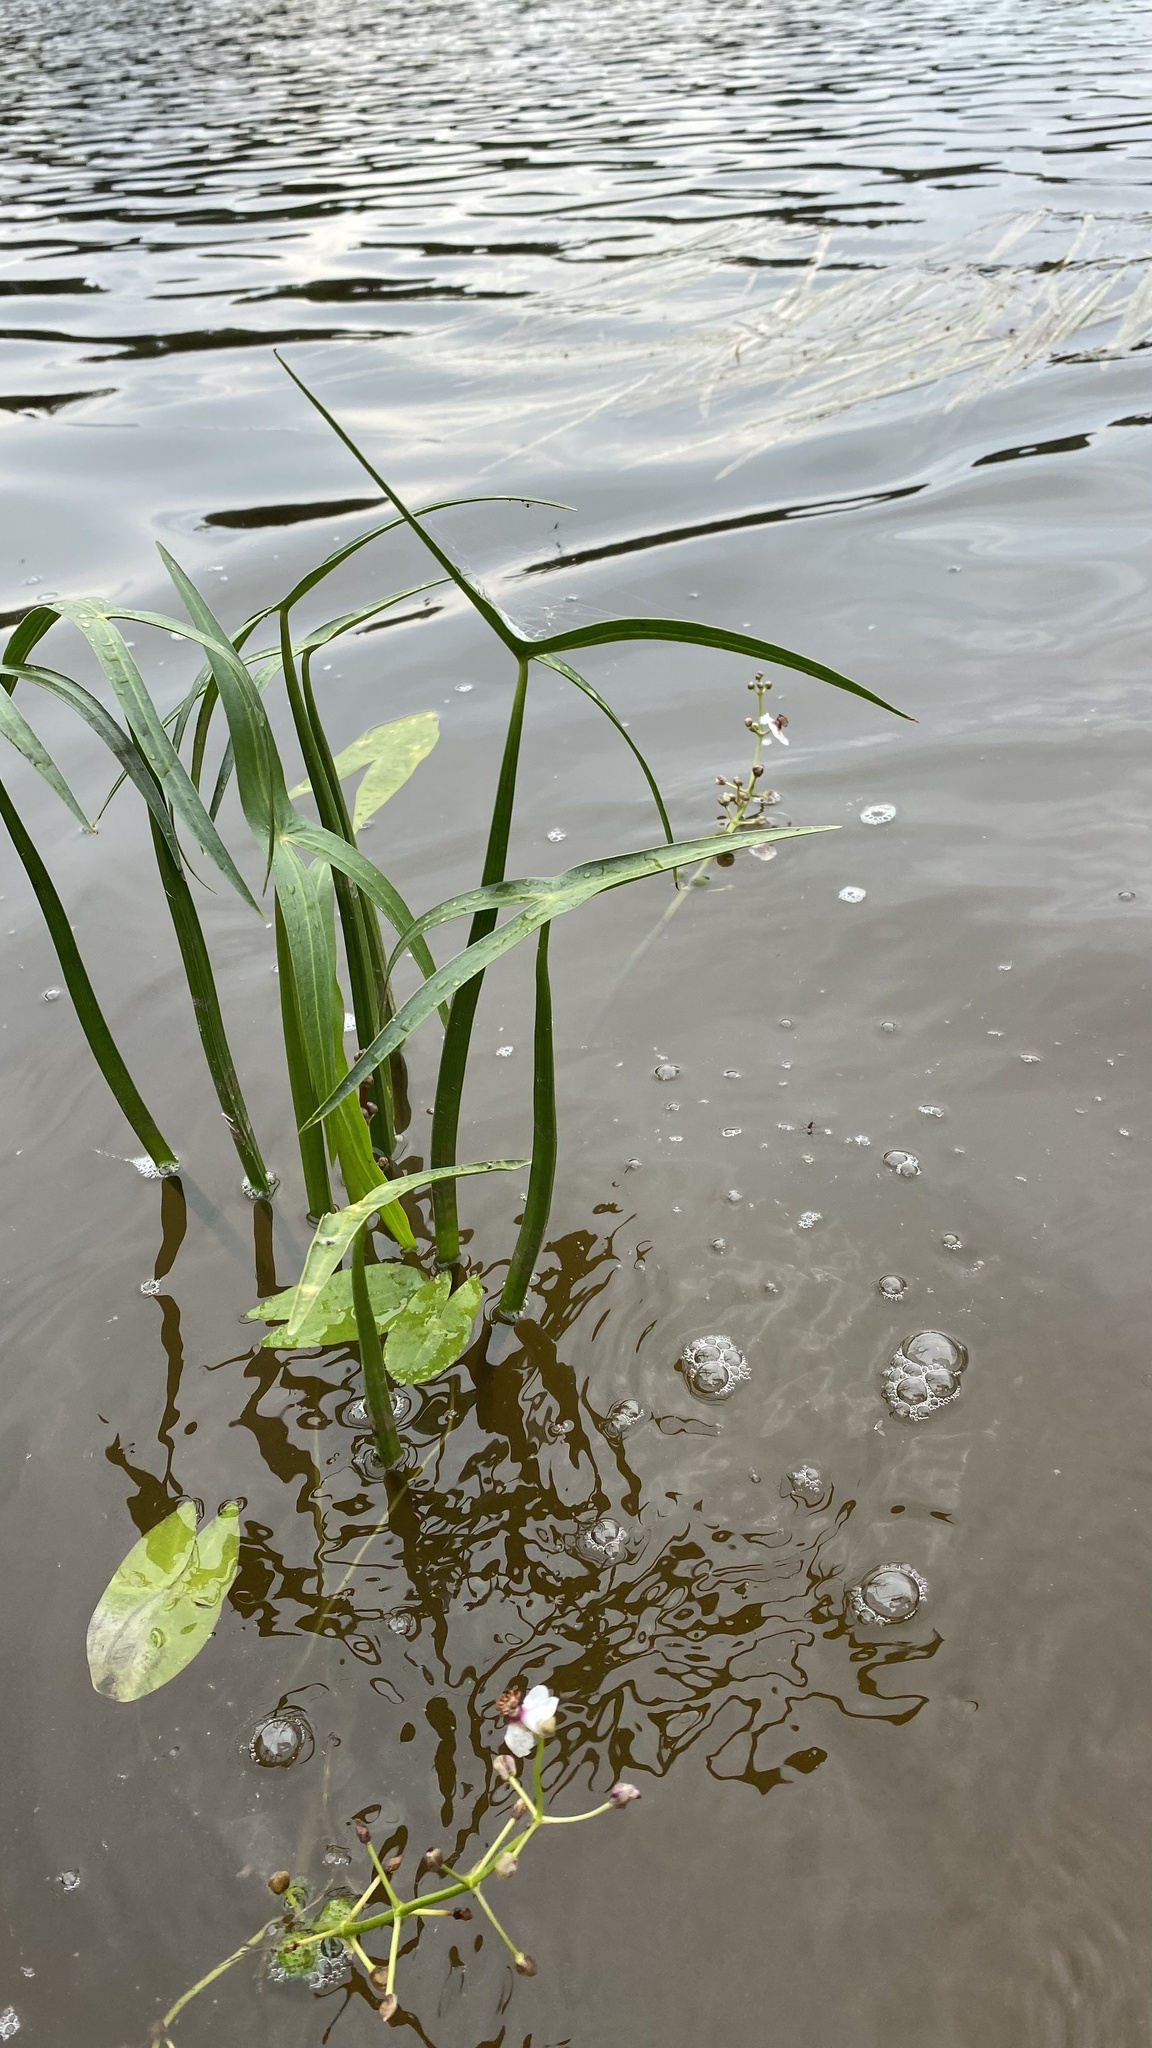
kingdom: Plantae
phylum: Tracheophyta
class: Liliopsida
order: Alismatales
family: Alismataceae
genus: Sagittaria
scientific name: Sagittaria sagittifolia
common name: Arrowhead
